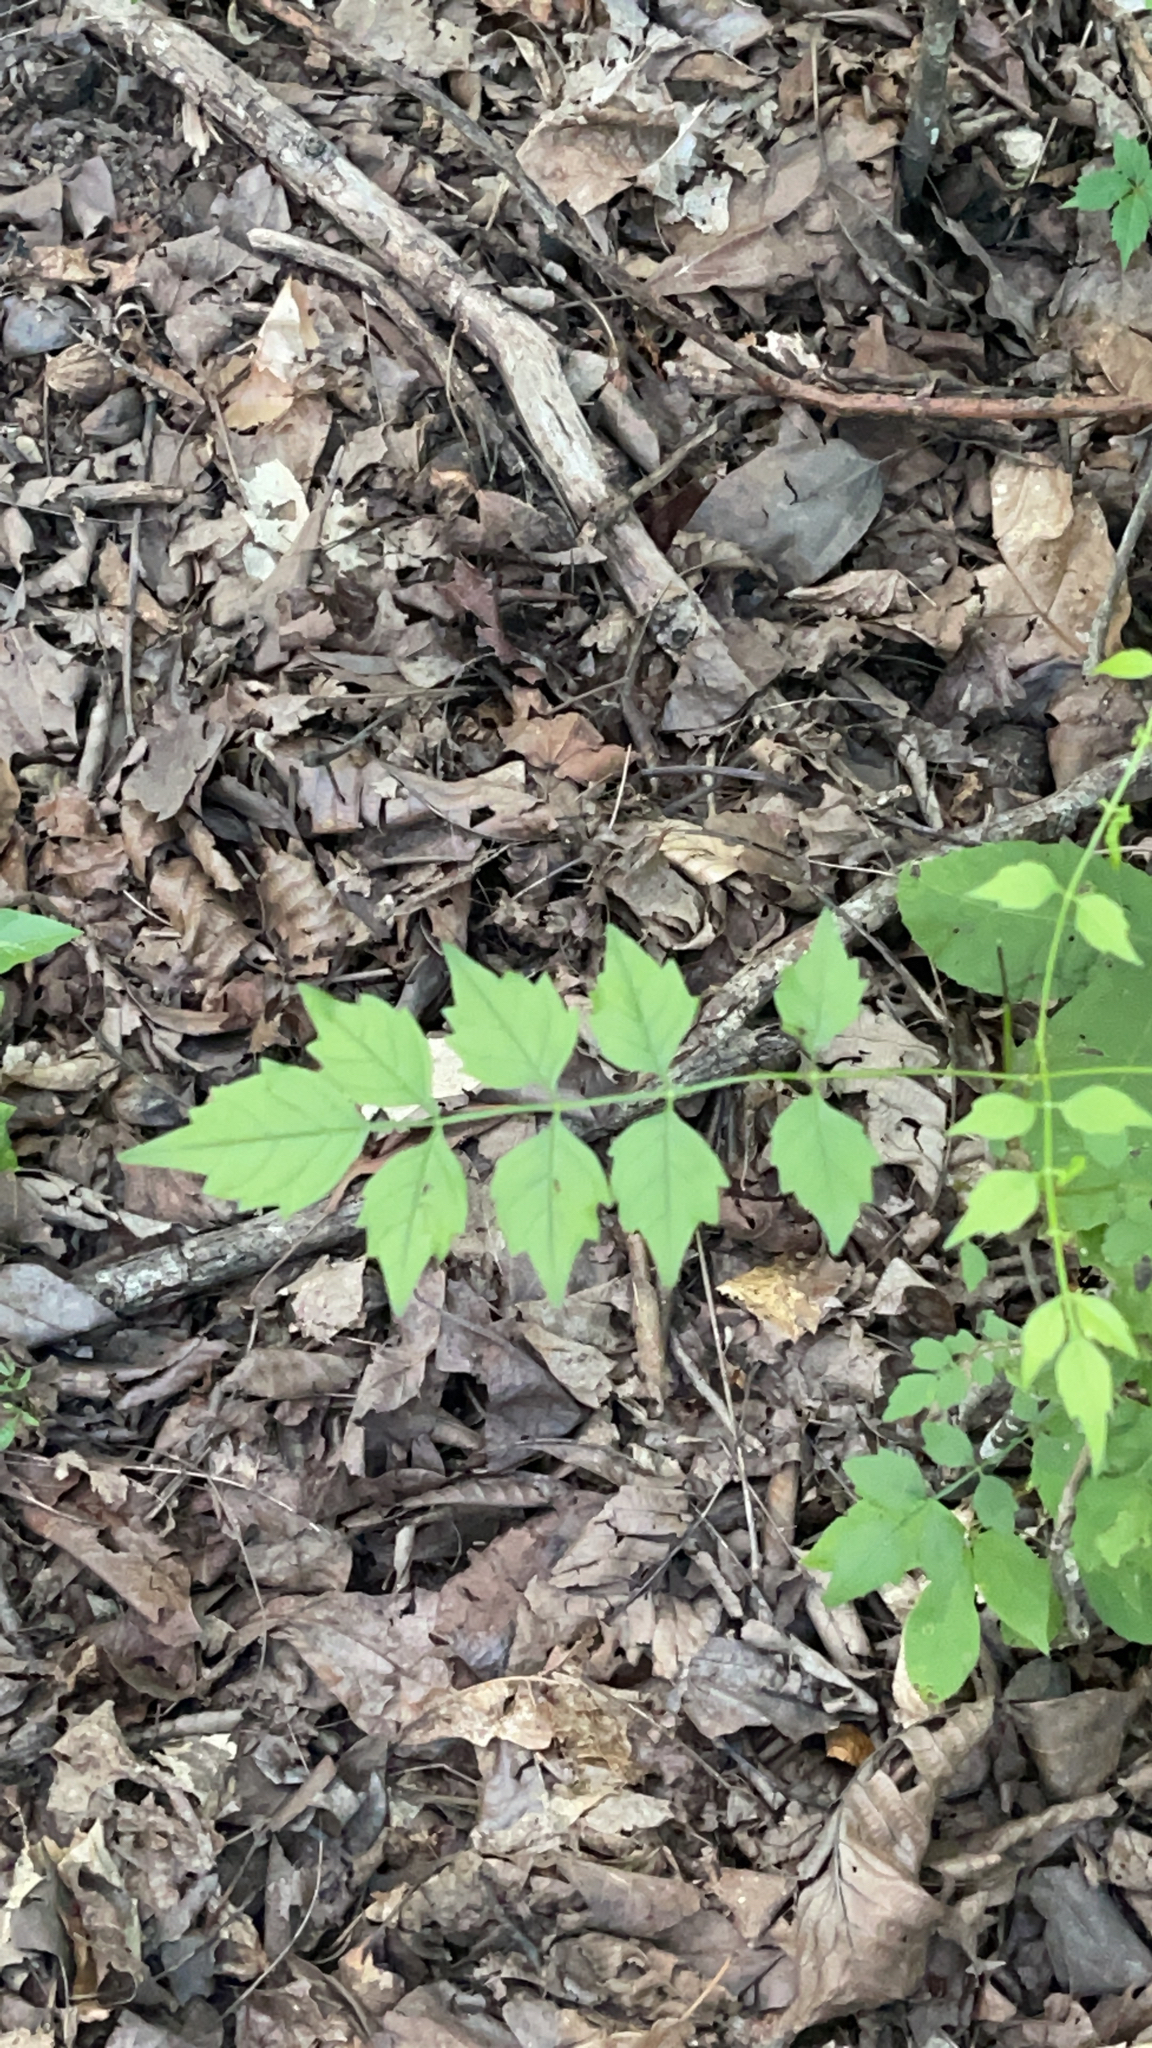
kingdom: Plantae
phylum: Tracheophyta
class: Magnoliopsida
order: Lamiales
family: Bignoniaceae
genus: Campsis
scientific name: Campsis radicans
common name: Trumpet-creeper
